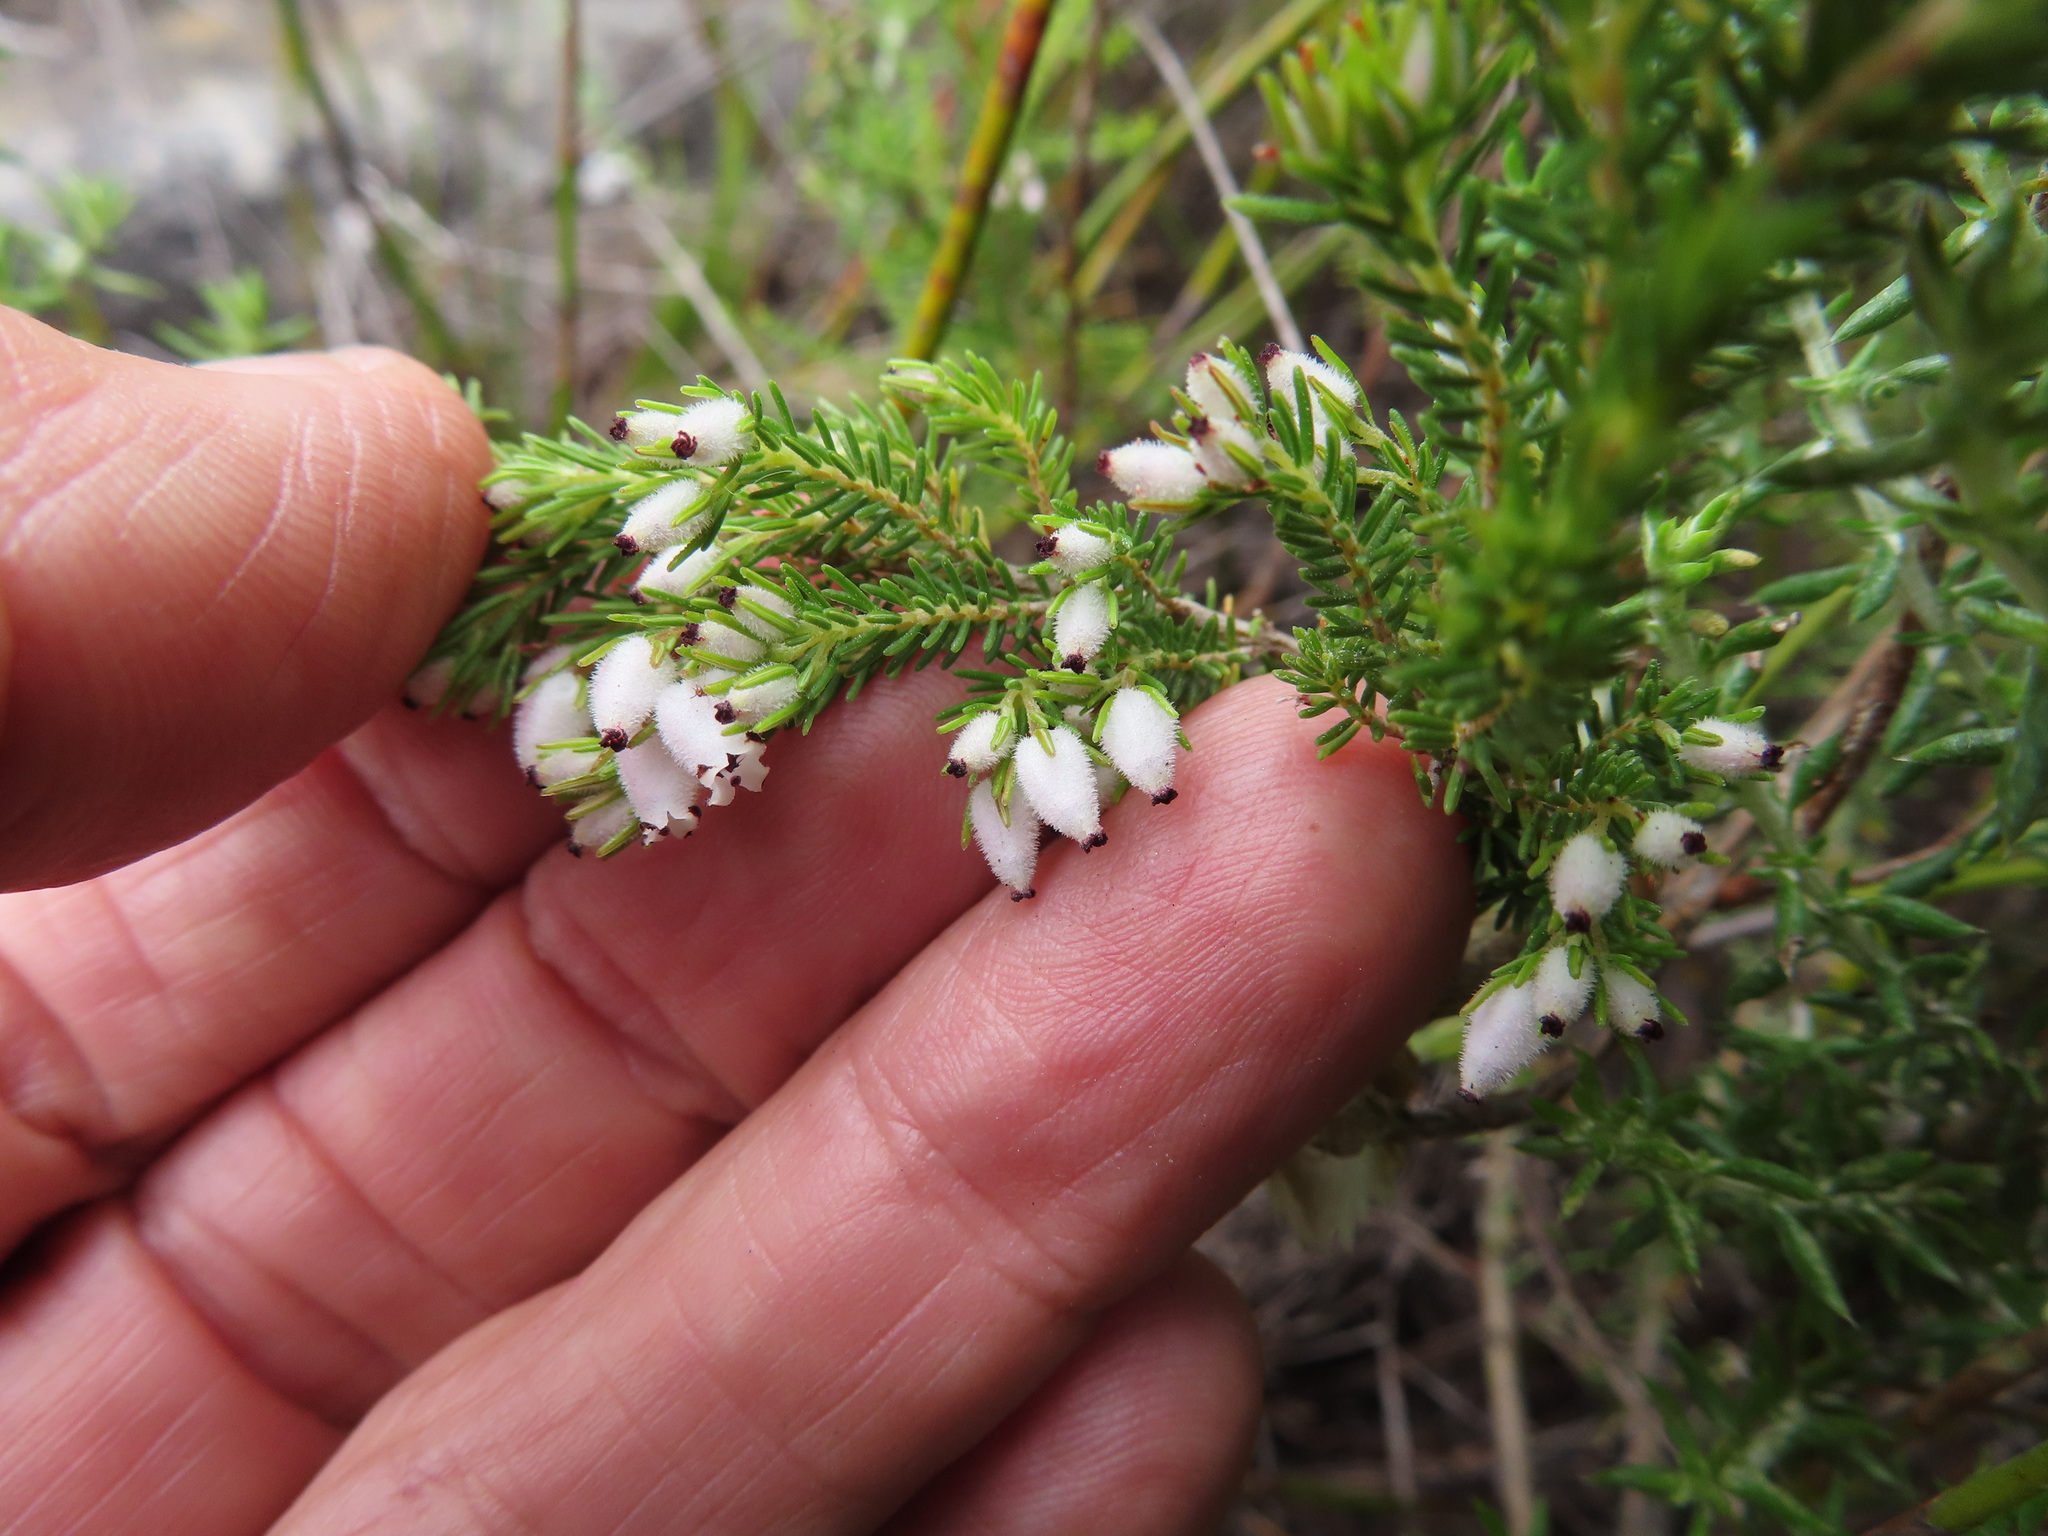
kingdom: Plantae
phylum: Tracheophyta
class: Magnoliopsida
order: Ericales
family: Ericaceae
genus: Erica
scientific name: Erica pubigera
